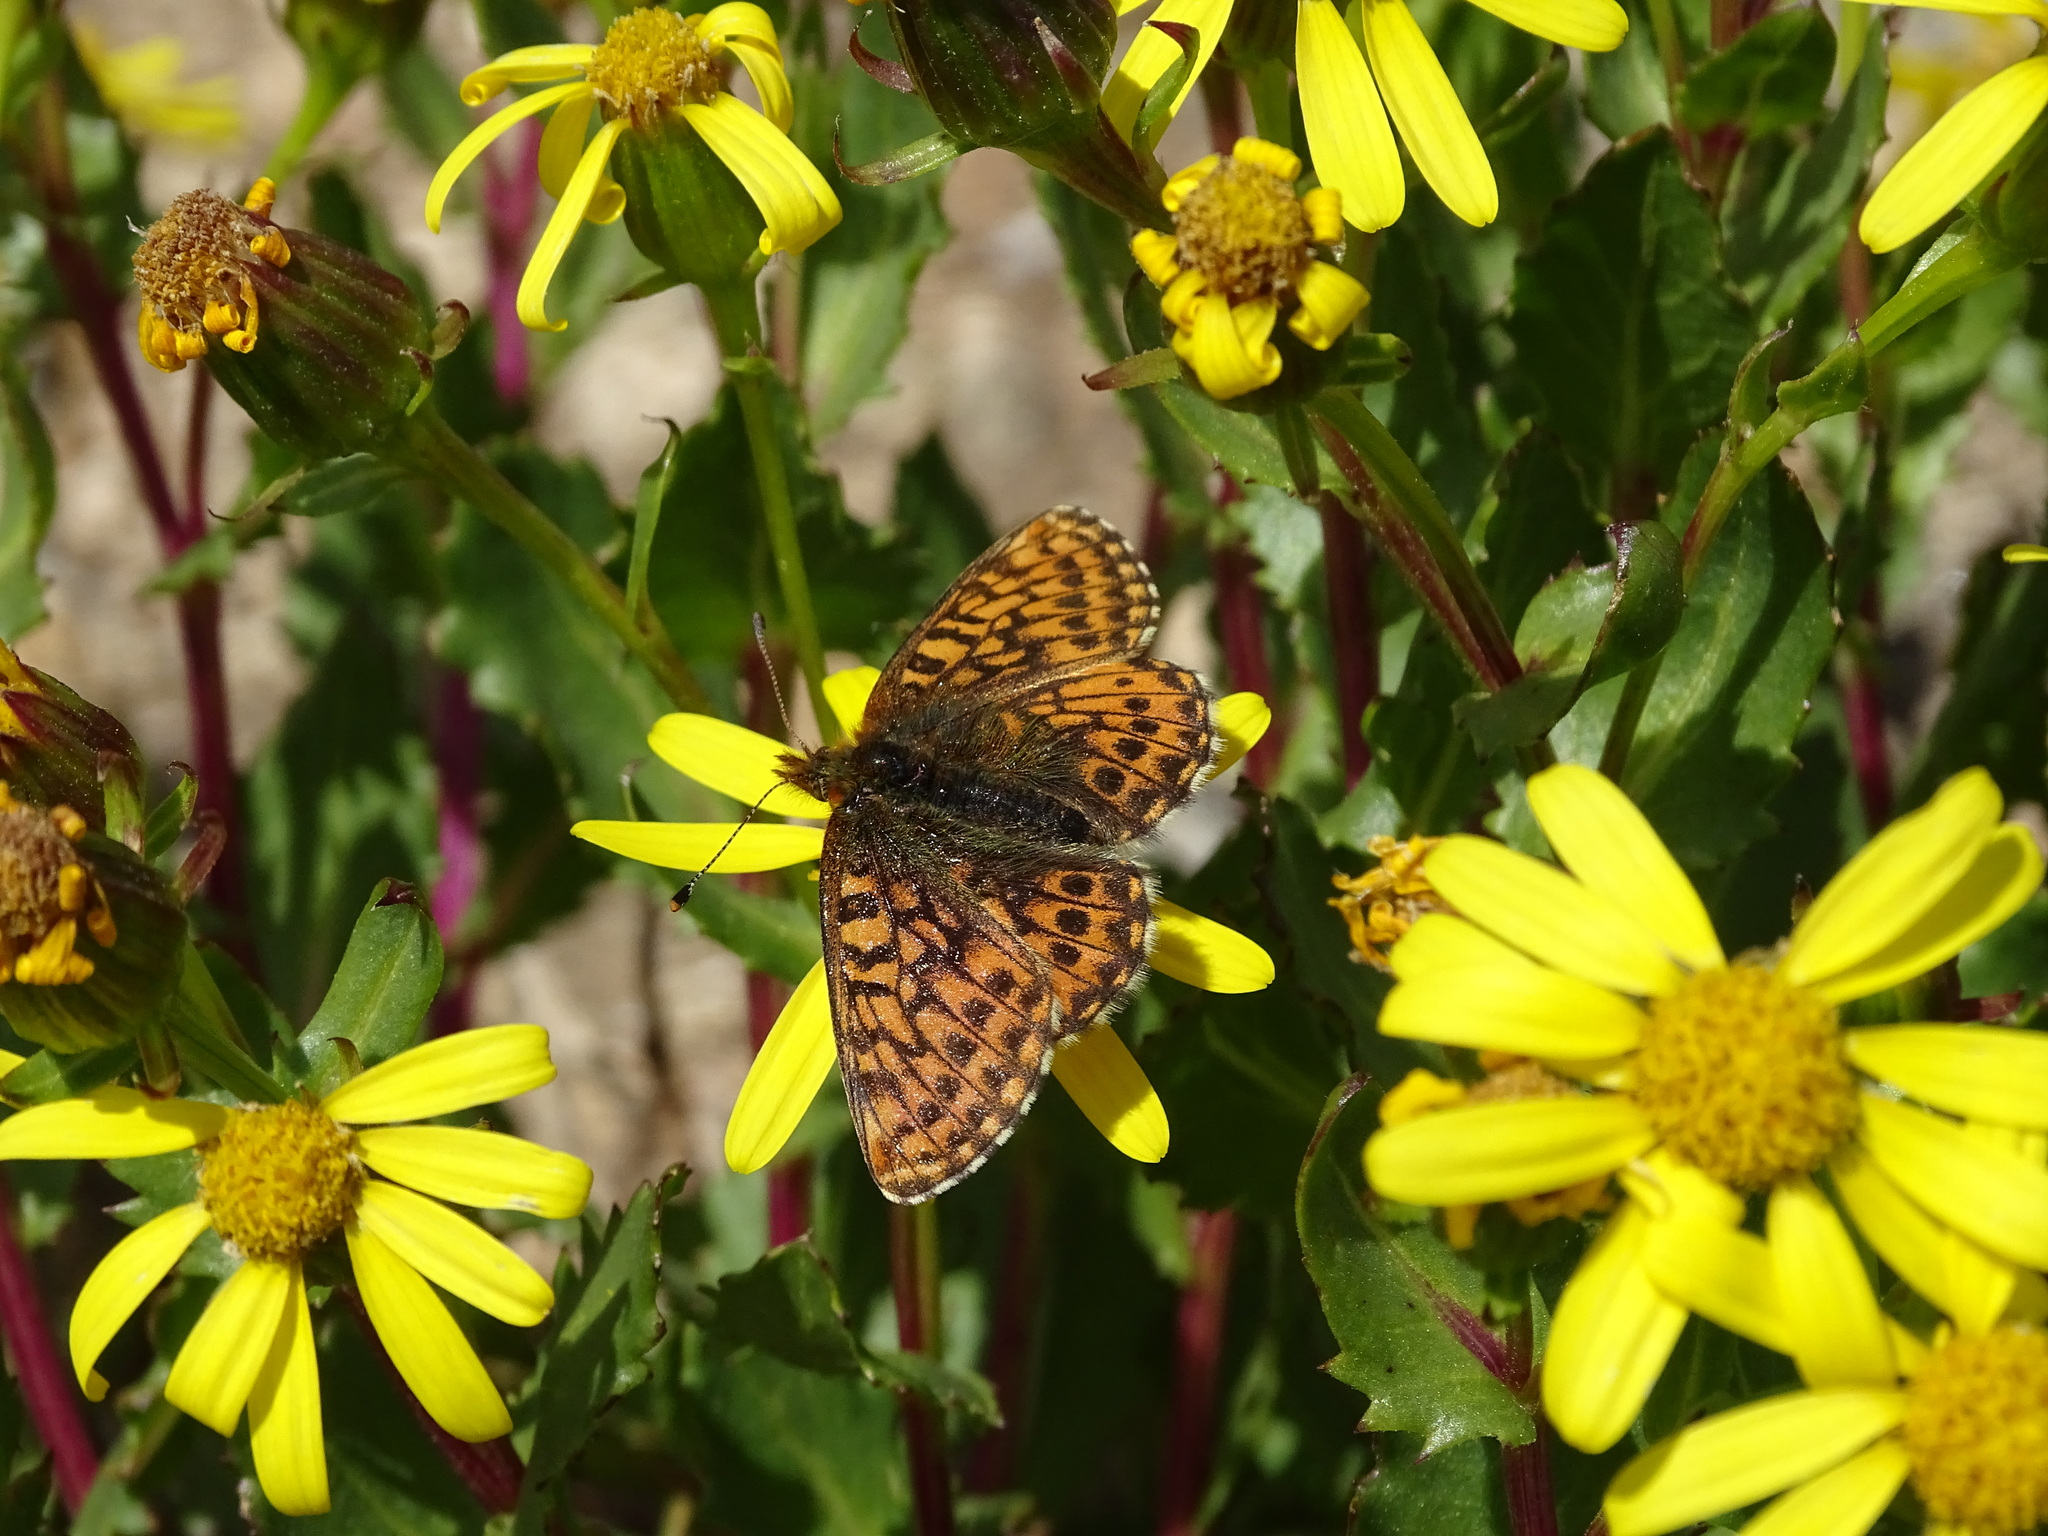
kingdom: Animalia
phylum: Arthropoda
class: Insecta
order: Lepidoptera
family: Nymphalidae
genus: Boloria
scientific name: Boloria chariclea
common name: Arctic fritillary
